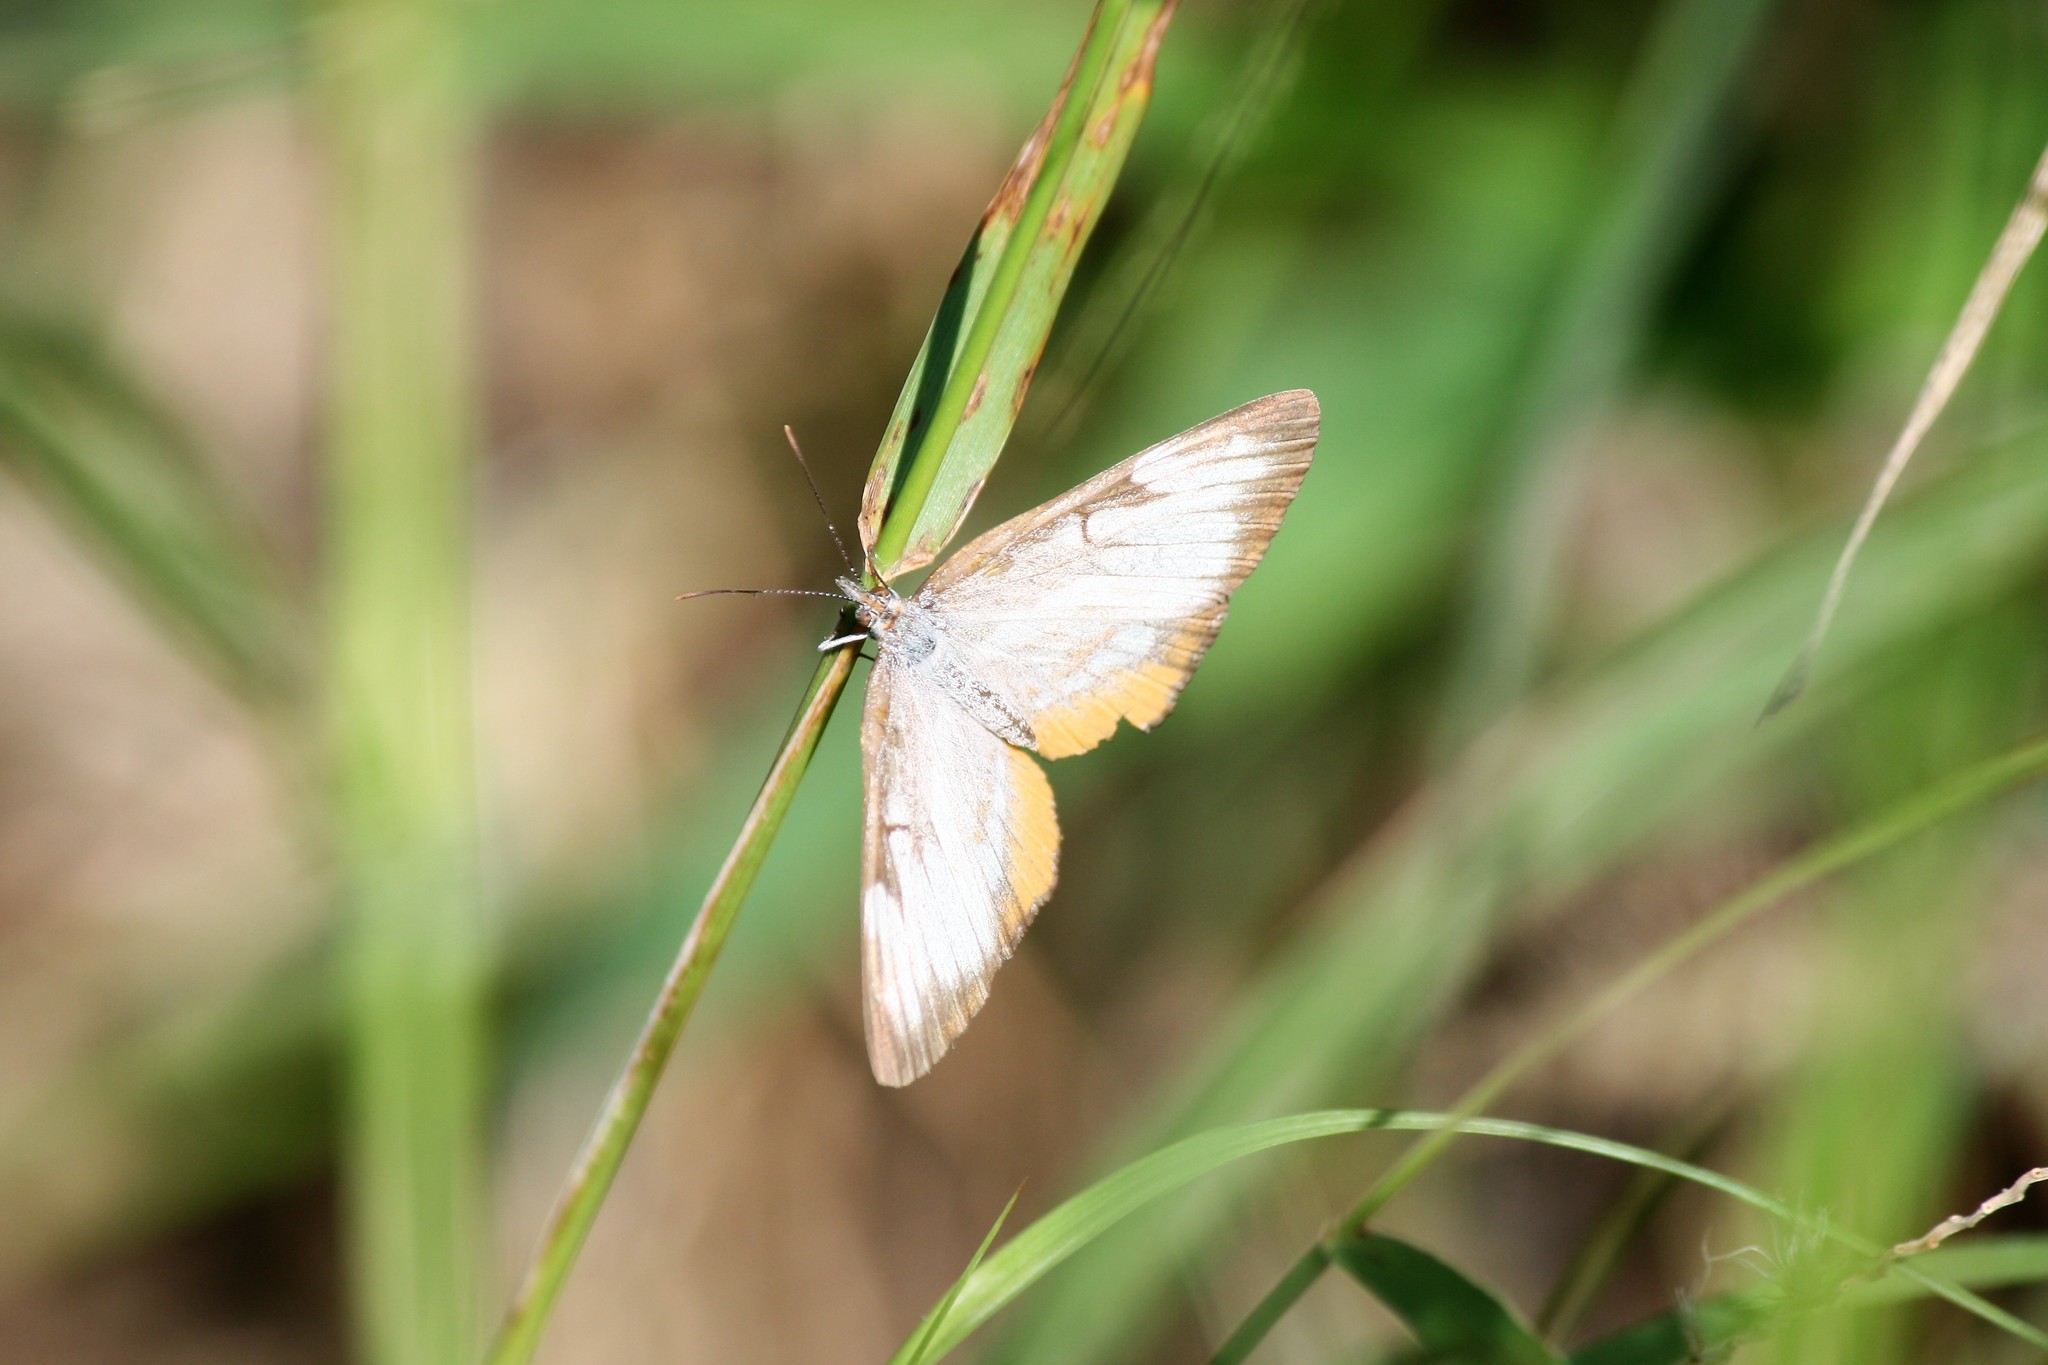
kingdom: Animalia
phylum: Arthropoda
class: Insecta
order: Lepidoptera
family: Nymphalidae
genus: Mestra
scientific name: Mestra amymone
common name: Common mestra
